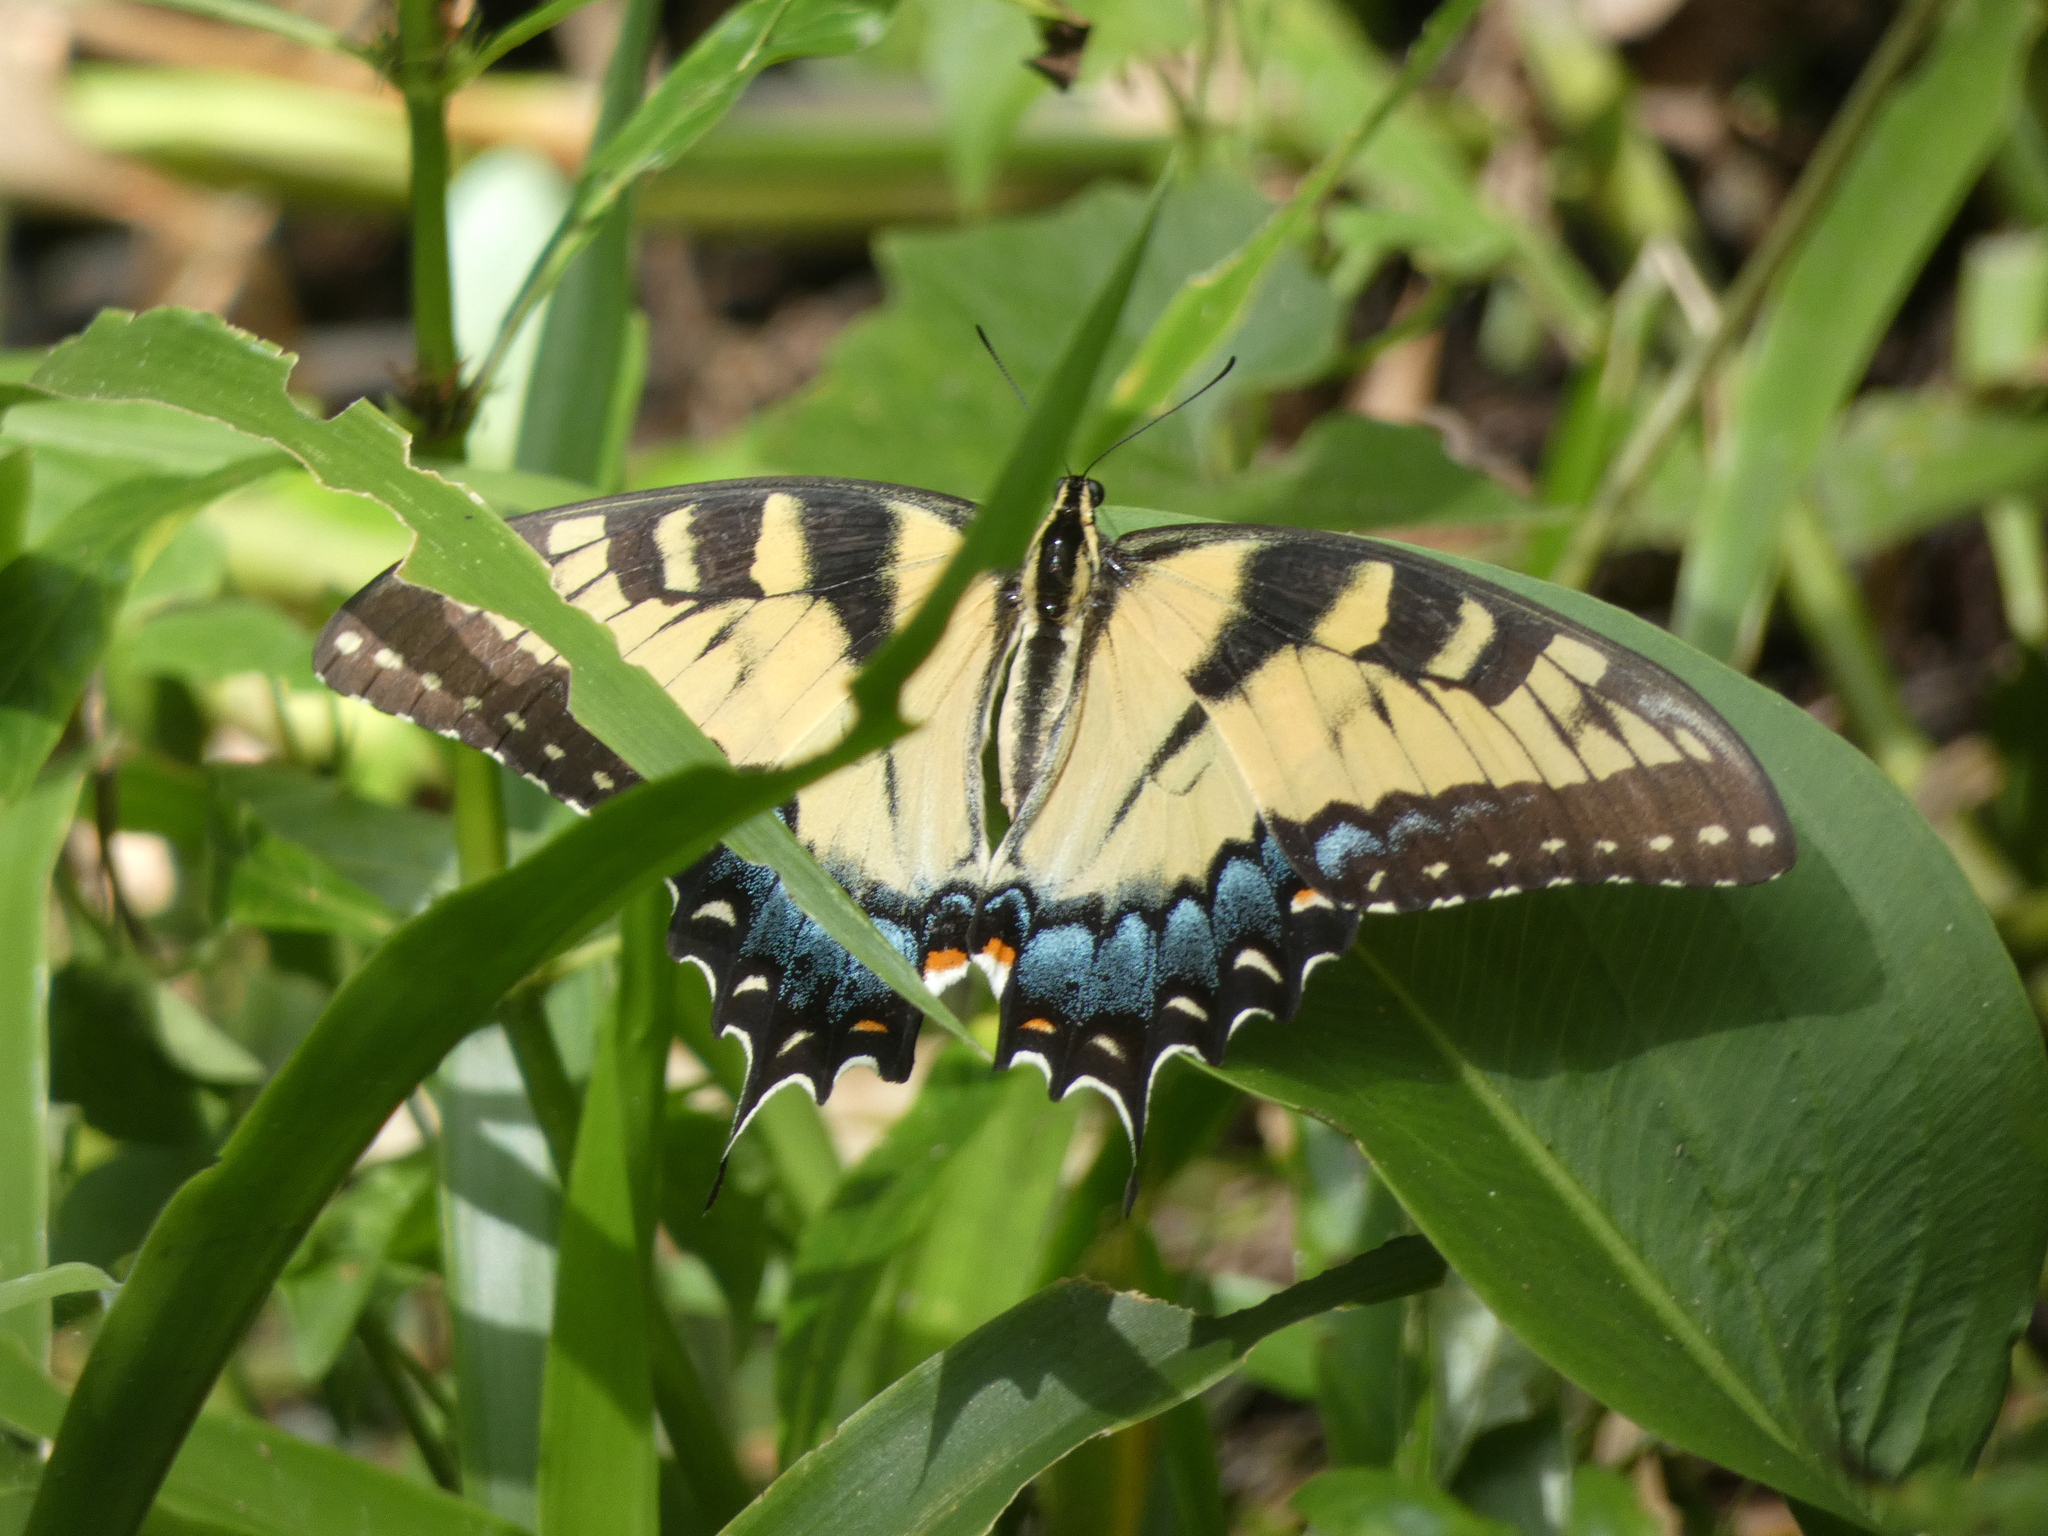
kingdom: Animalia
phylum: Arthropoda
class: Insecta
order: Lepidoptera
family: Papilionidae
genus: Papilio
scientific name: Papilio glaucus
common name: Tiger swallowtail
